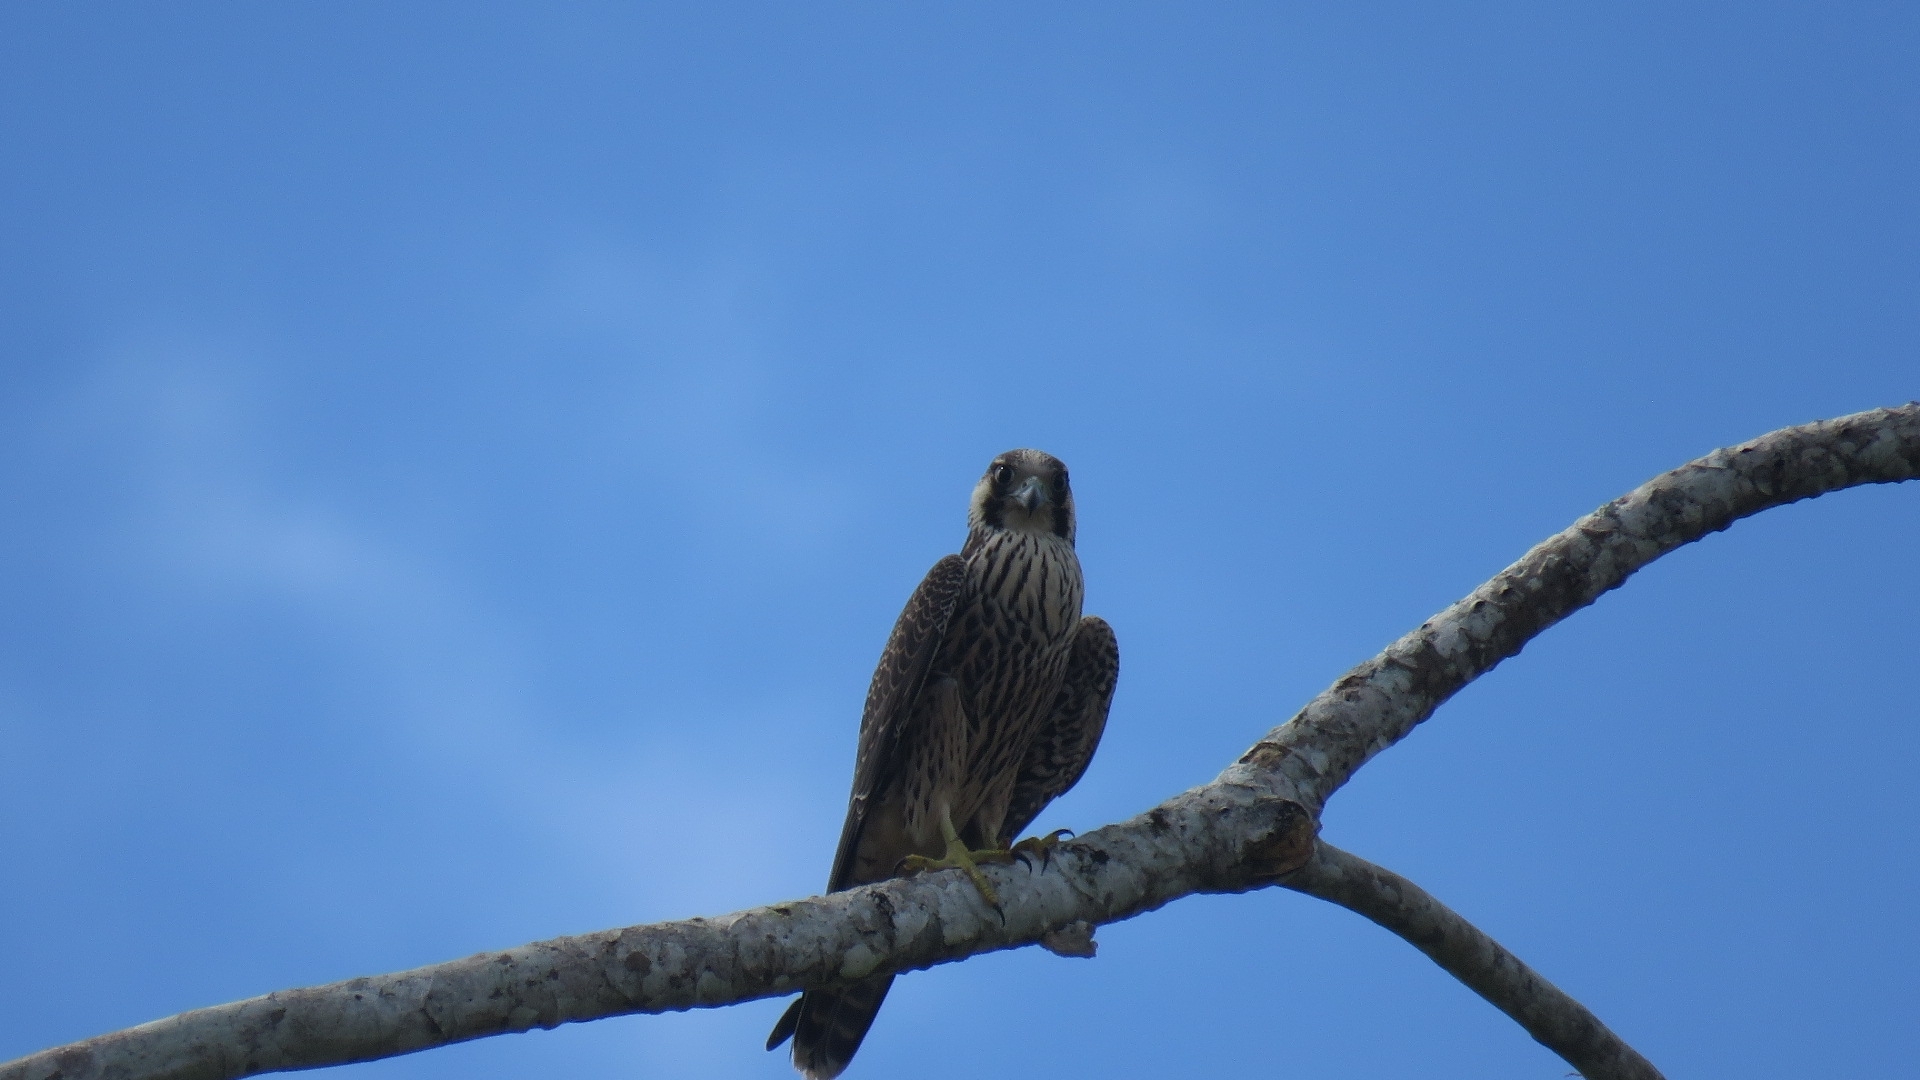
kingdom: Animalia
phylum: Chordata
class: Aves
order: Falconiformes
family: Falconidae
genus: Falco
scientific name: Falco peregrinus
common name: Peregrine falcon
